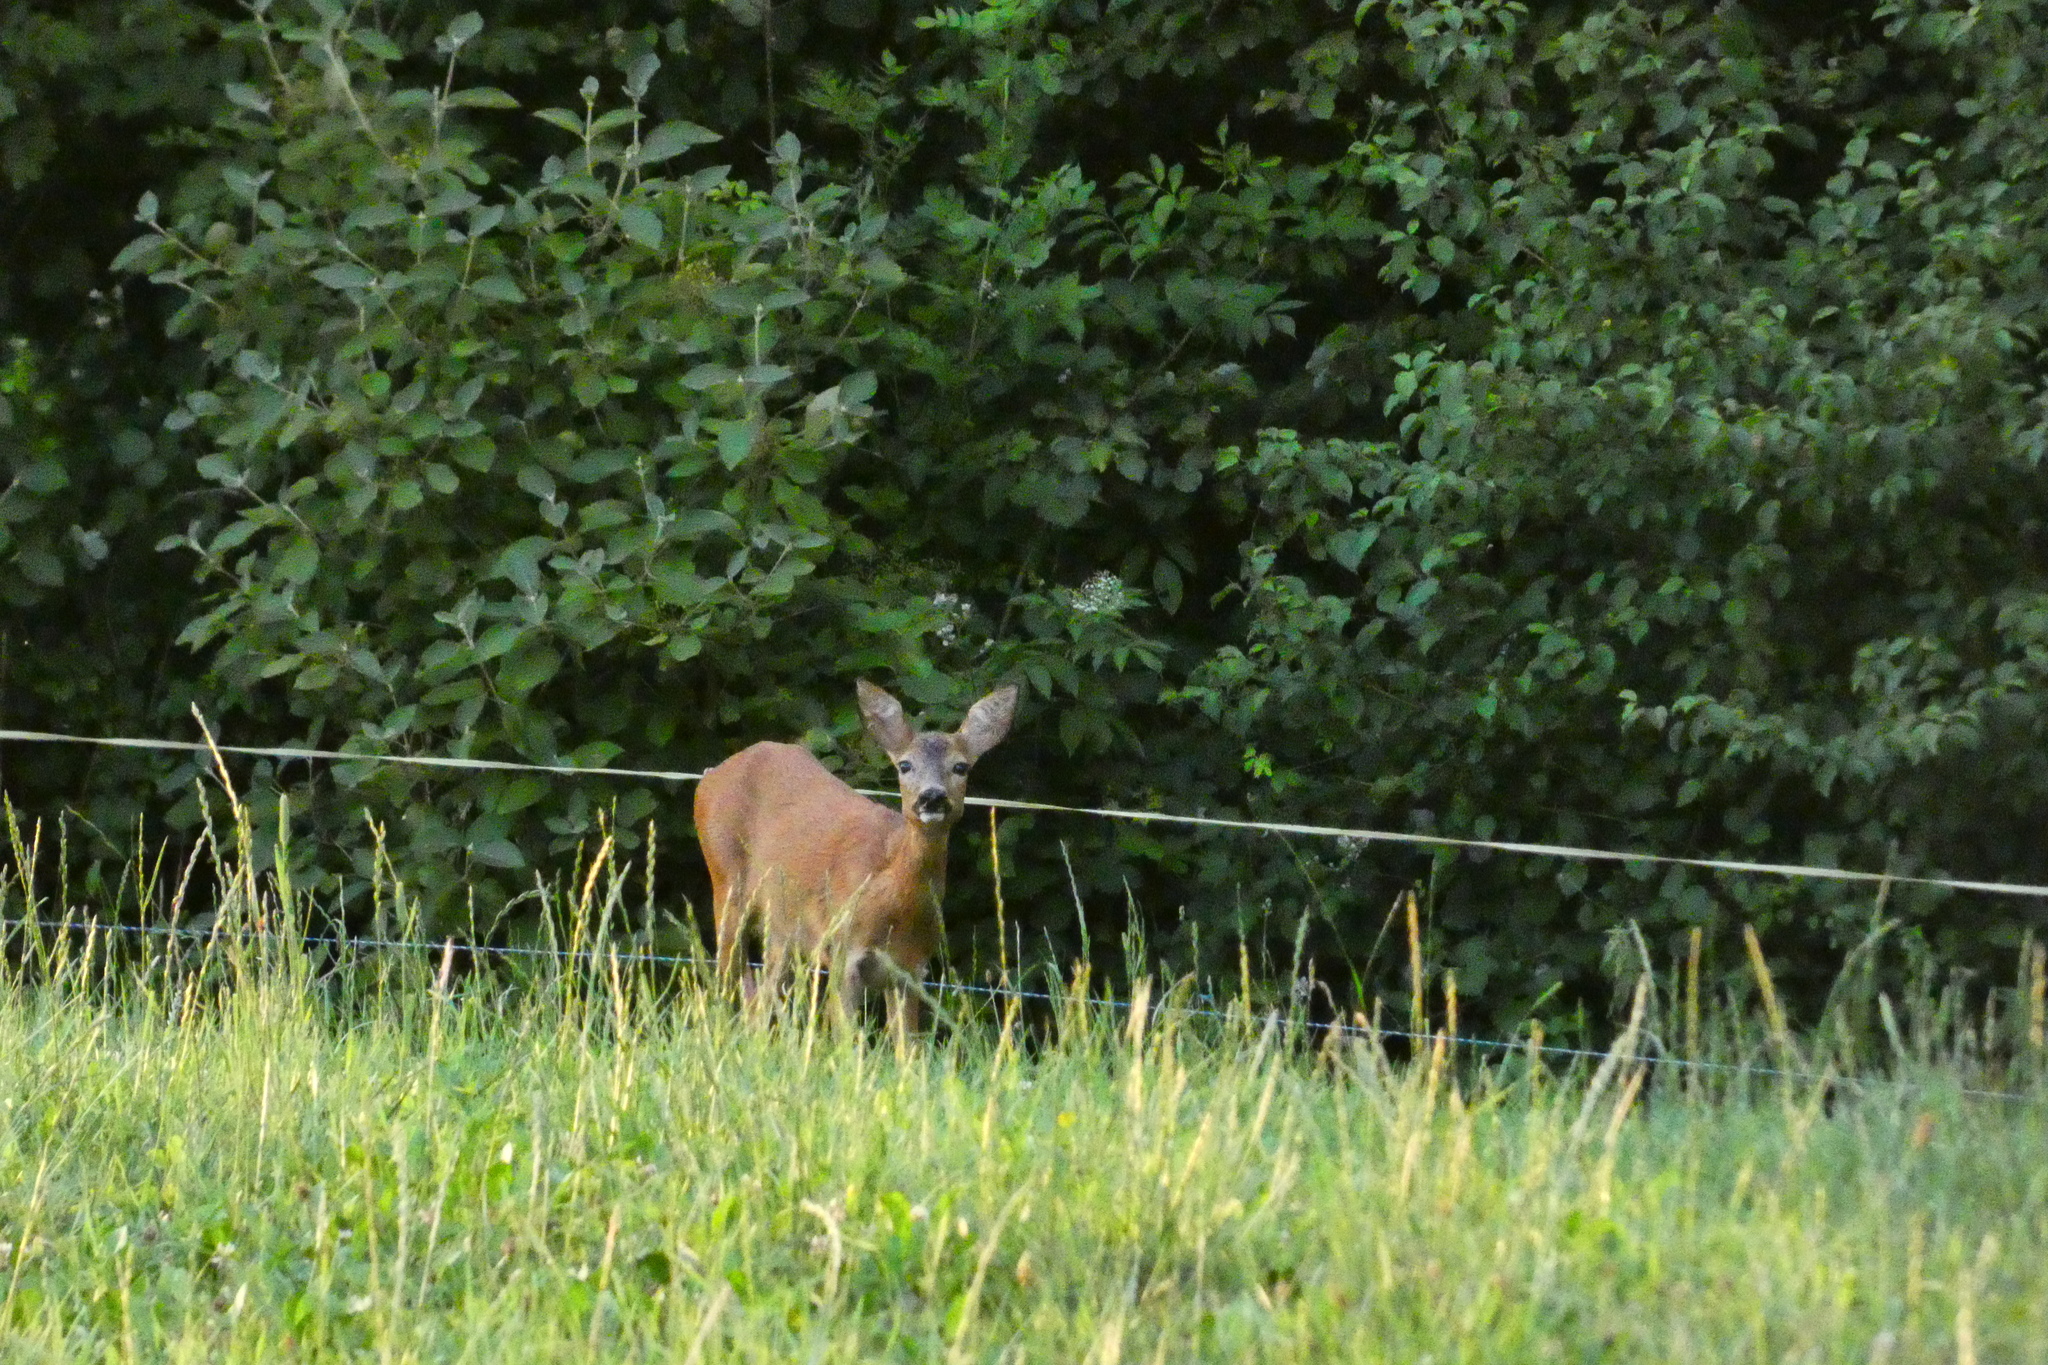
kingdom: Animalia
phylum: Chordata
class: Mammalia
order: Artiodactyla
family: Cervidae
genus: Capreolus
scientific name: Capreolus capreolus
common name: Western roe deer
